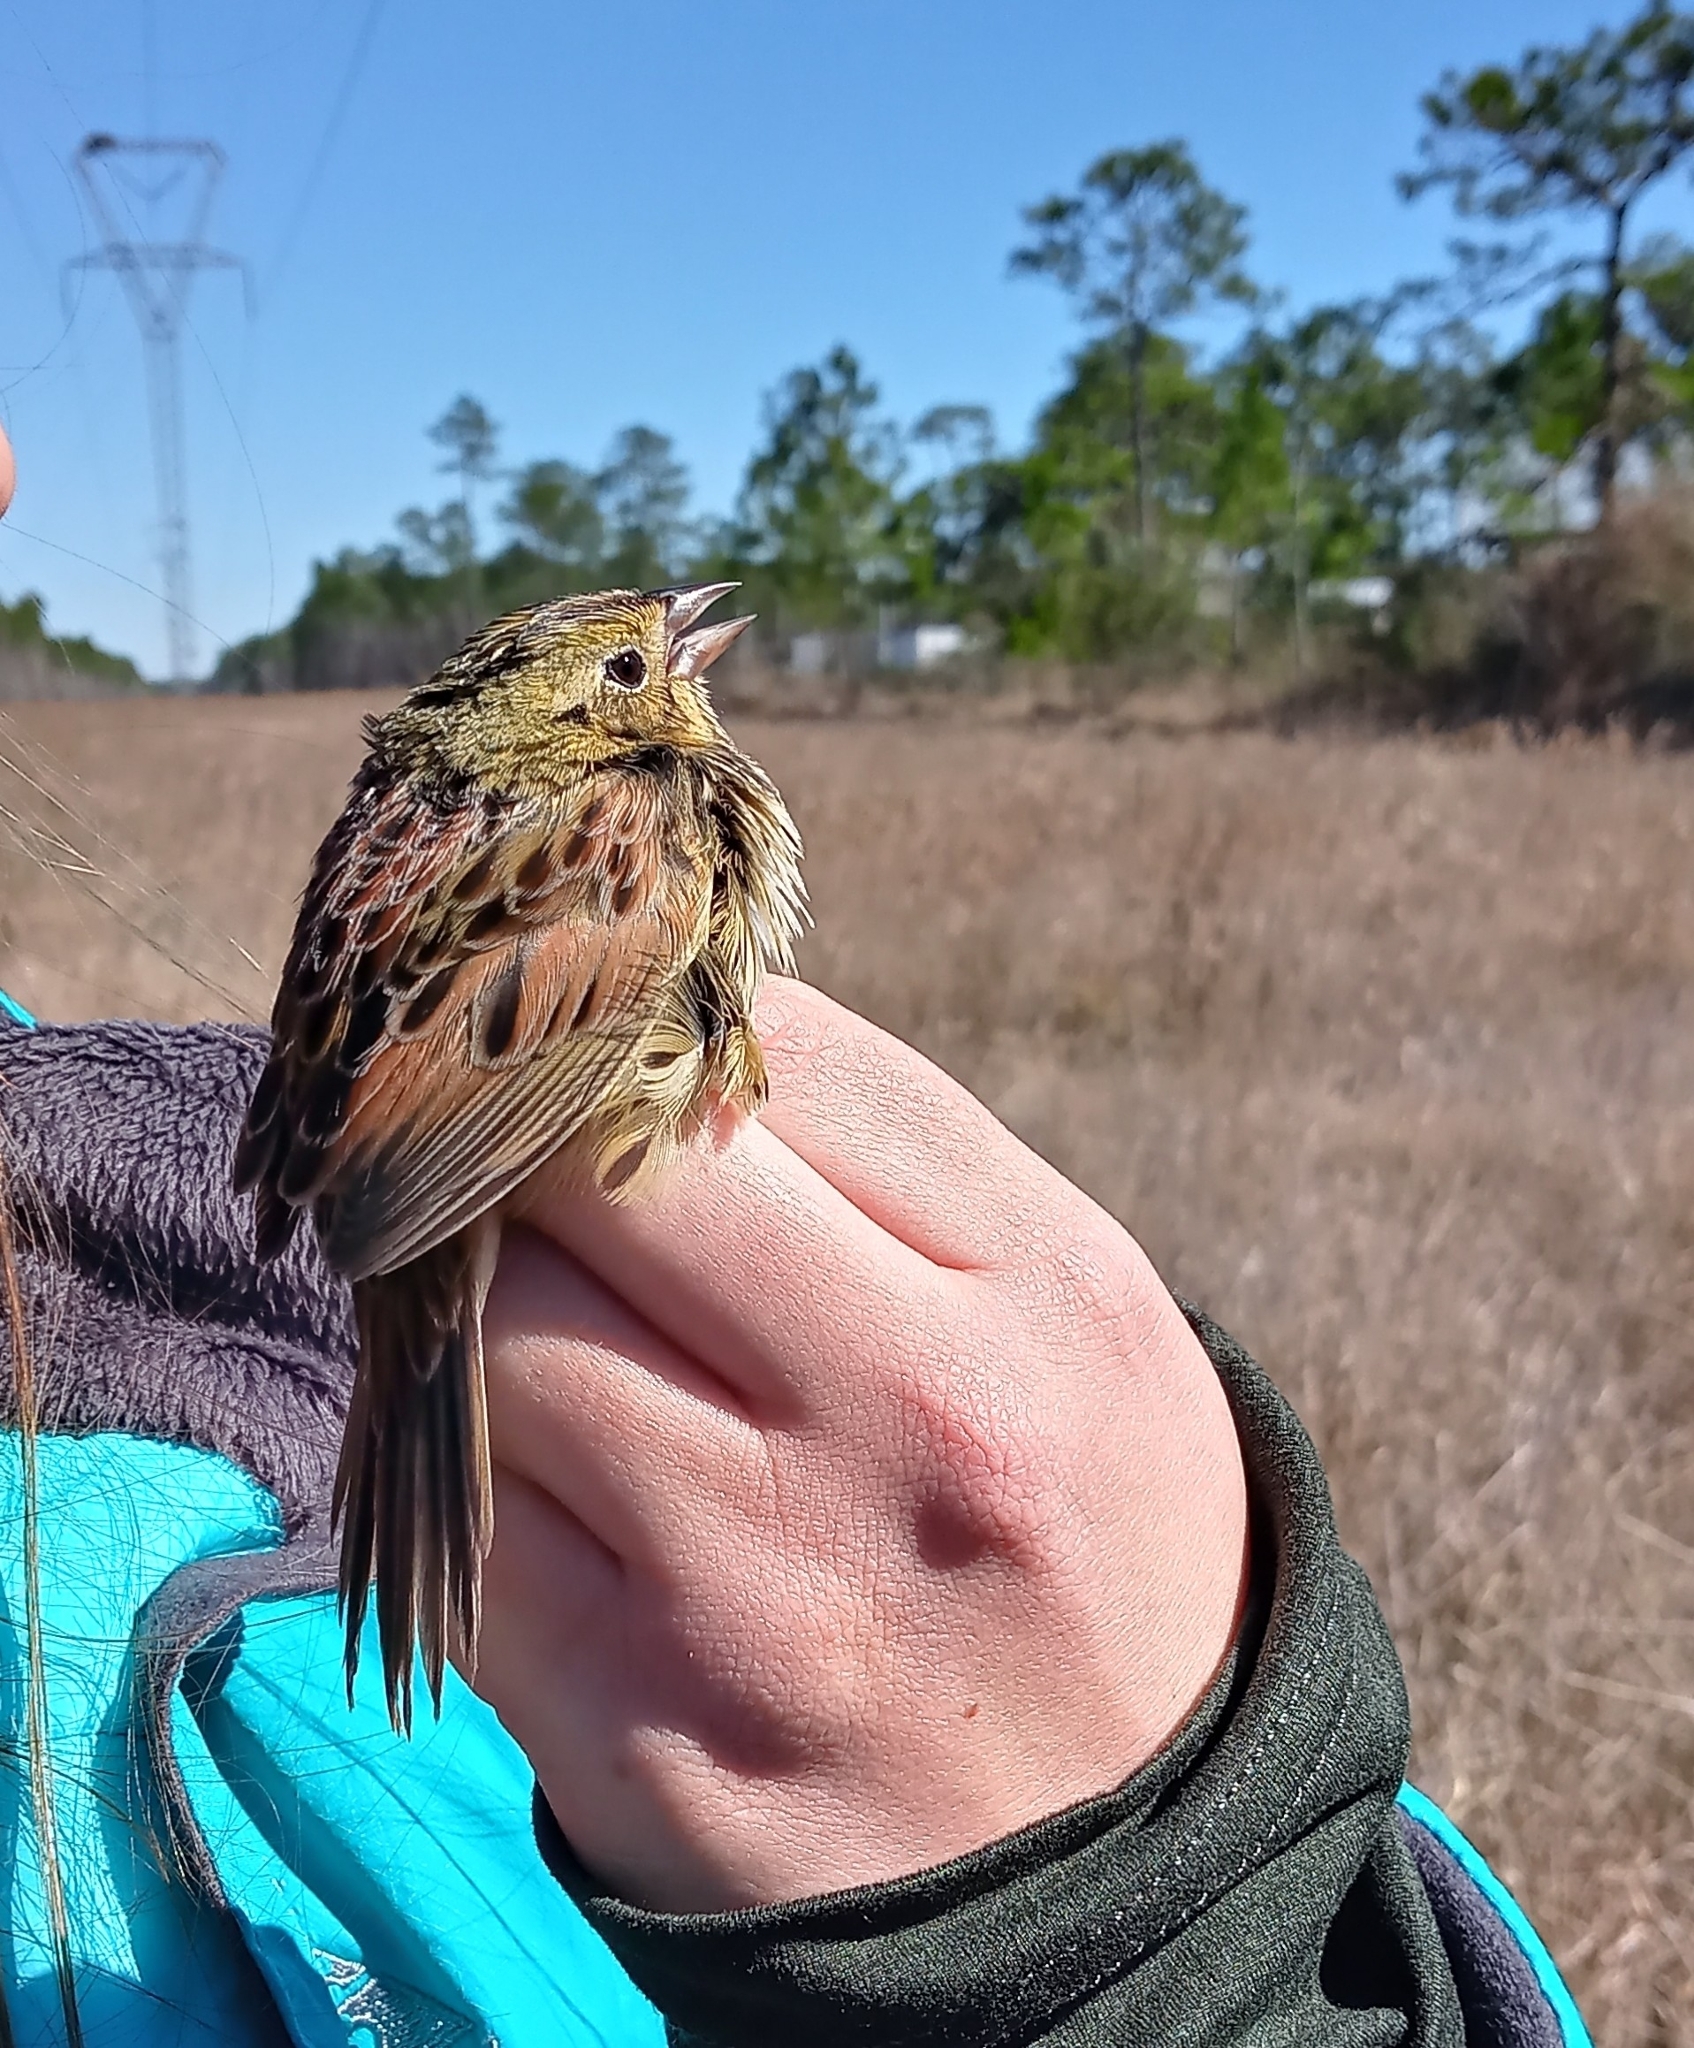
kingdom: Animalia
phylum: Chordata
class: Aves
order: Passeriformes
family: Passerellidae
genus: Centronyx
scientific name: Centronyx henslowii
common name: Henslow's sparrow
